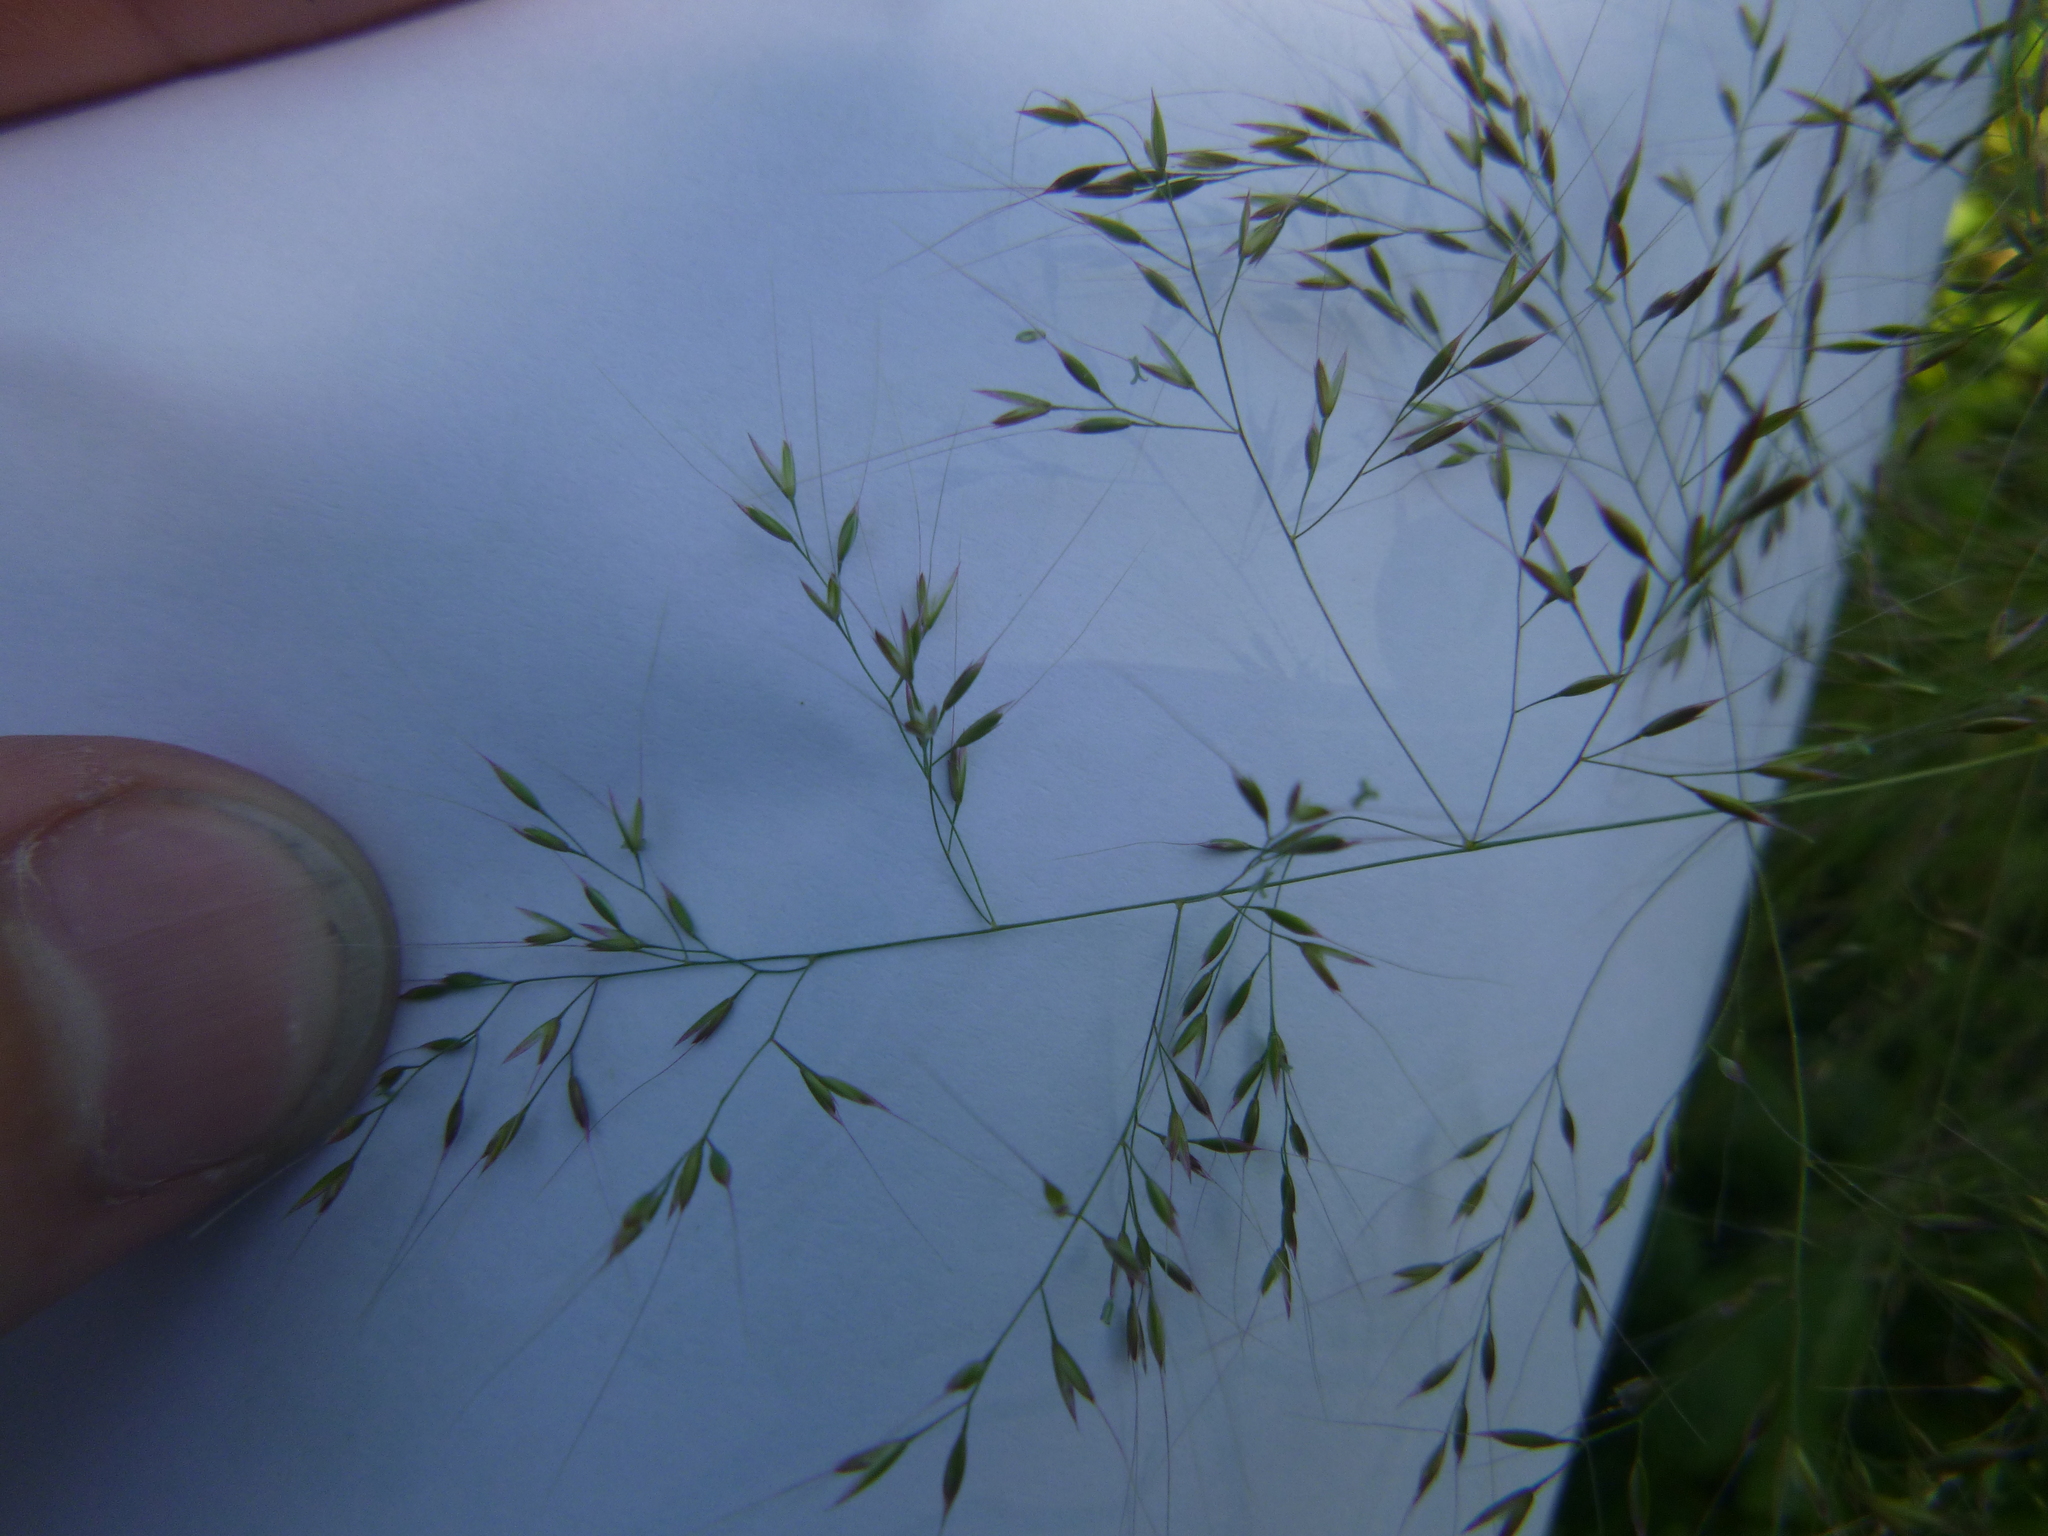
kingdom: Plantae
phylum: Tracheophyta
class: Liliopsida
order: Poales
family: Poaceae
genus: Apera
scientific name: Apera spica-venti
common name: Loose silky-bent
